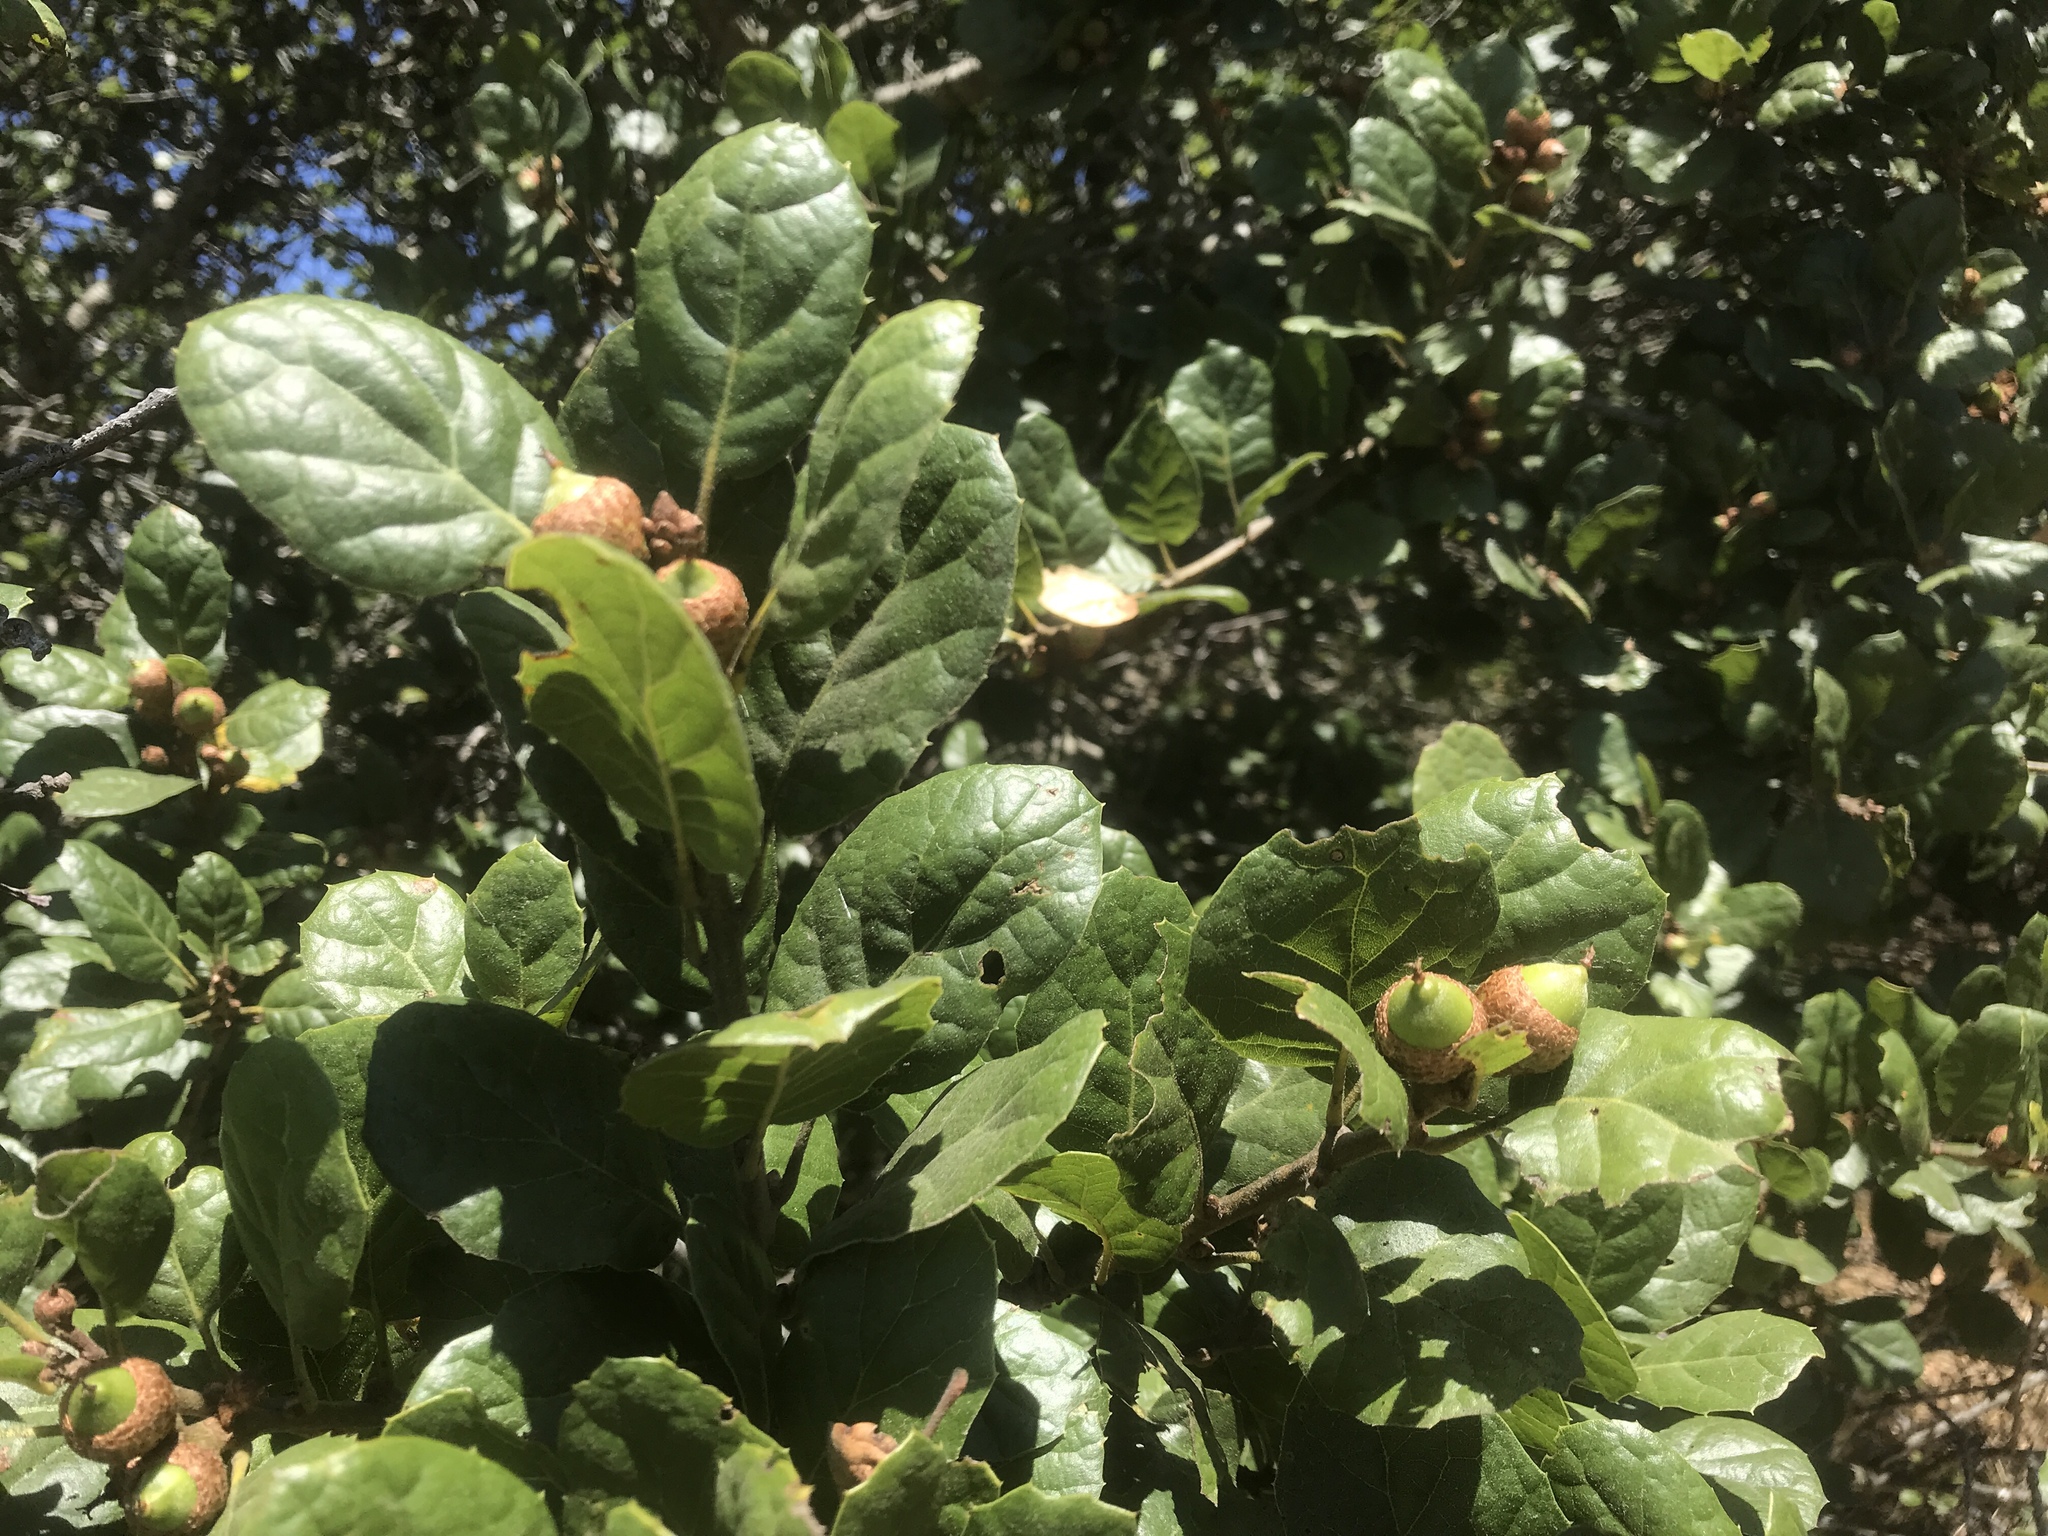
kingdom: Plantae
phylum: Tracheophyta
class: Magnoliopsida
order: Fagales
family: Fagaceae
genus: Quercus
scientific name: Quercus agrifolia
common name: California live oak
